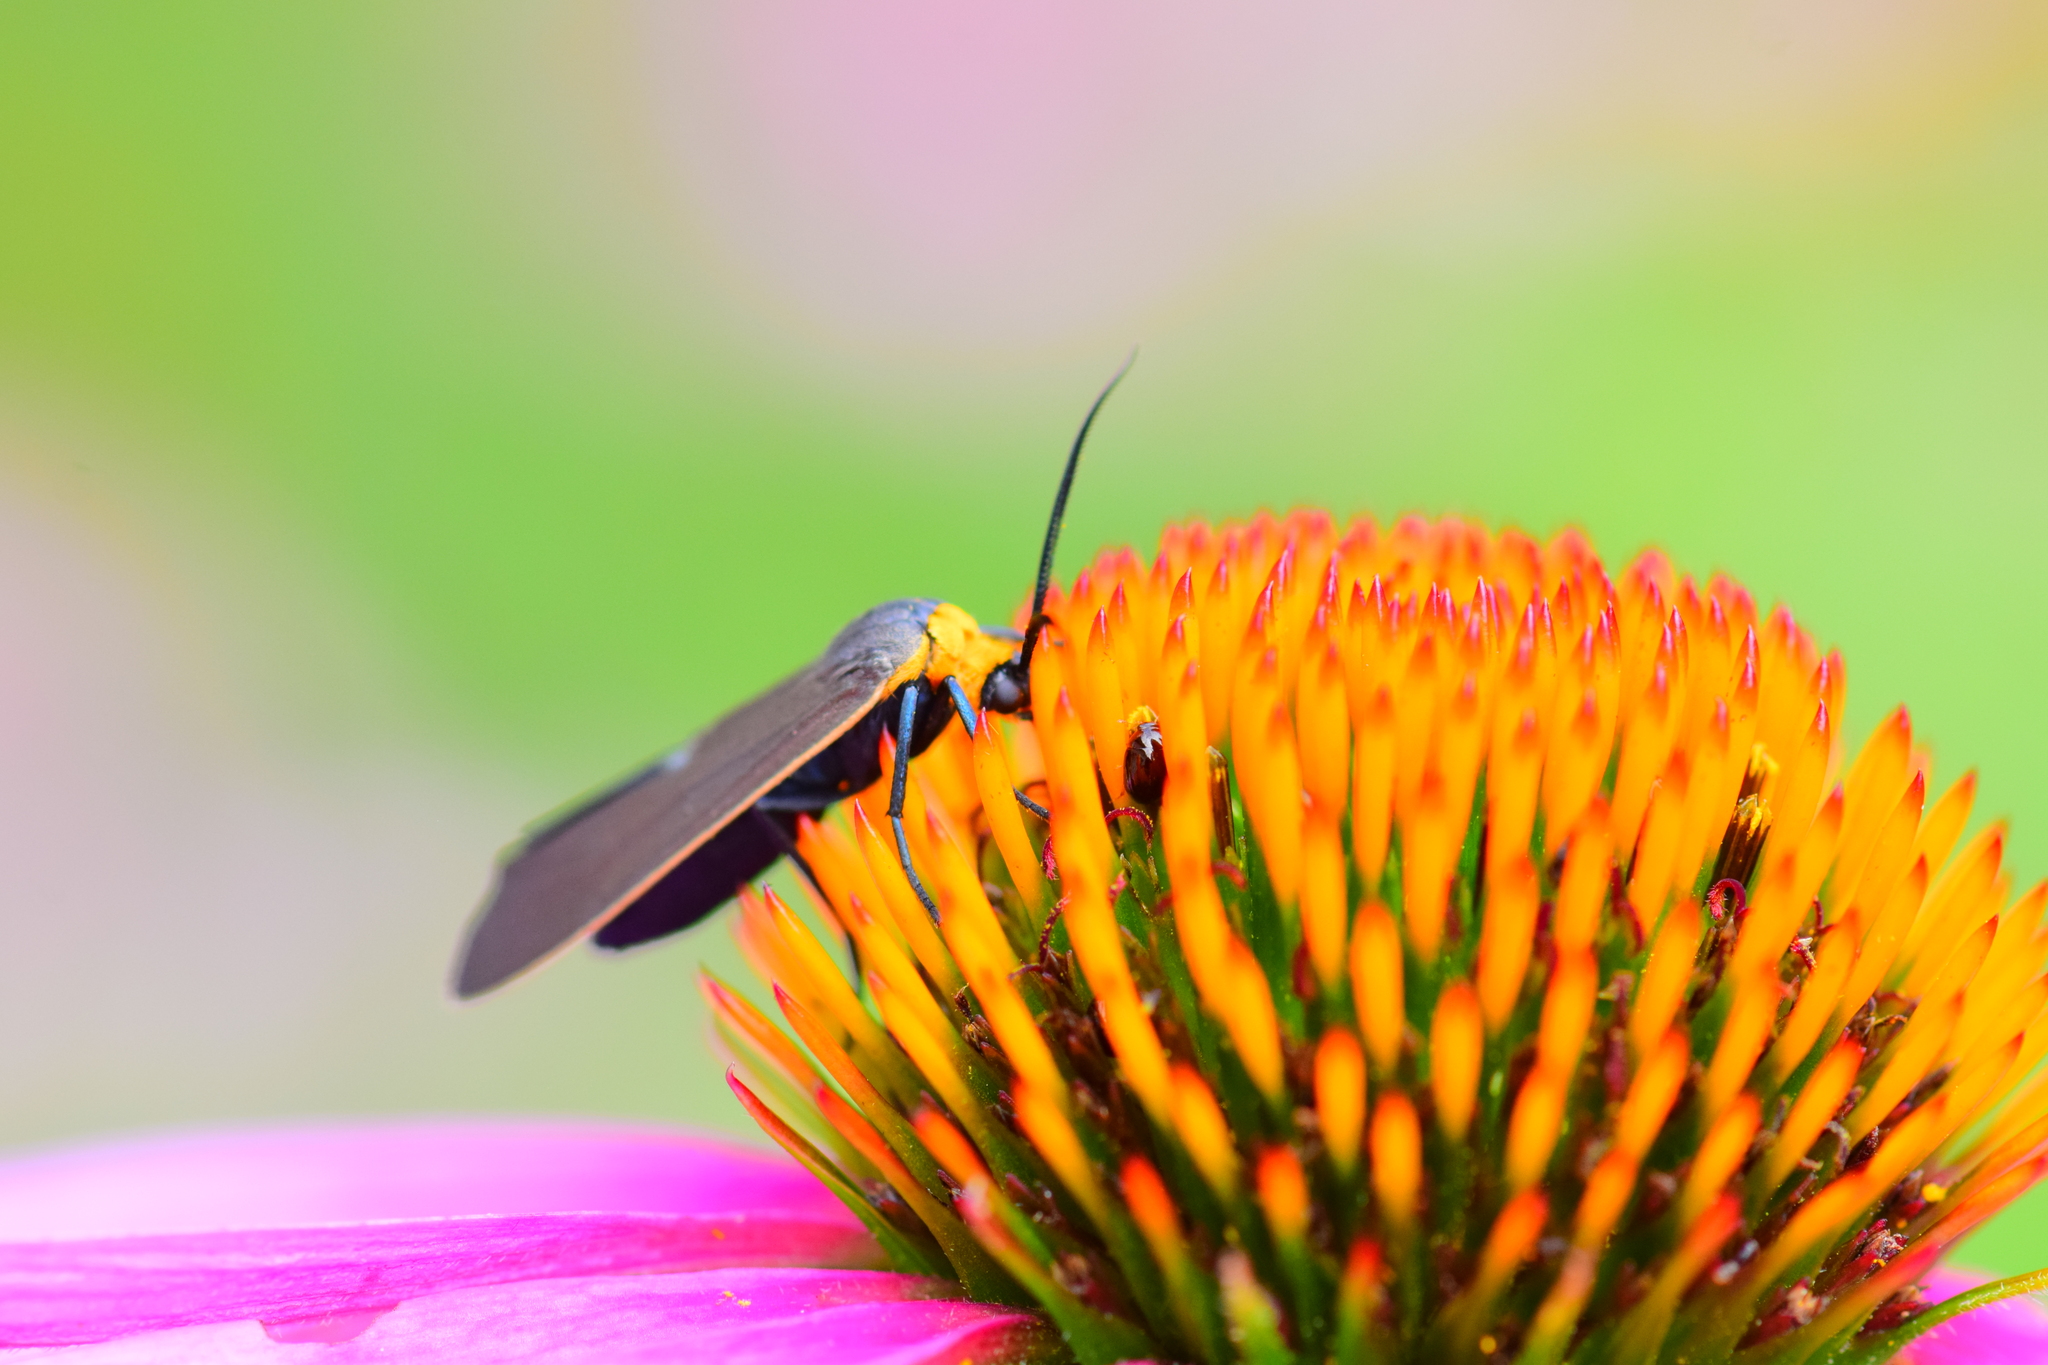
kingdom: Animalia
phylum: Arthropoda
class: Insecta
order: Lepidoptera
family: Erebidae
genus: Cisseps
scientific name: Cisseps fulvicollis
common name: Yellow-collared scape moth
